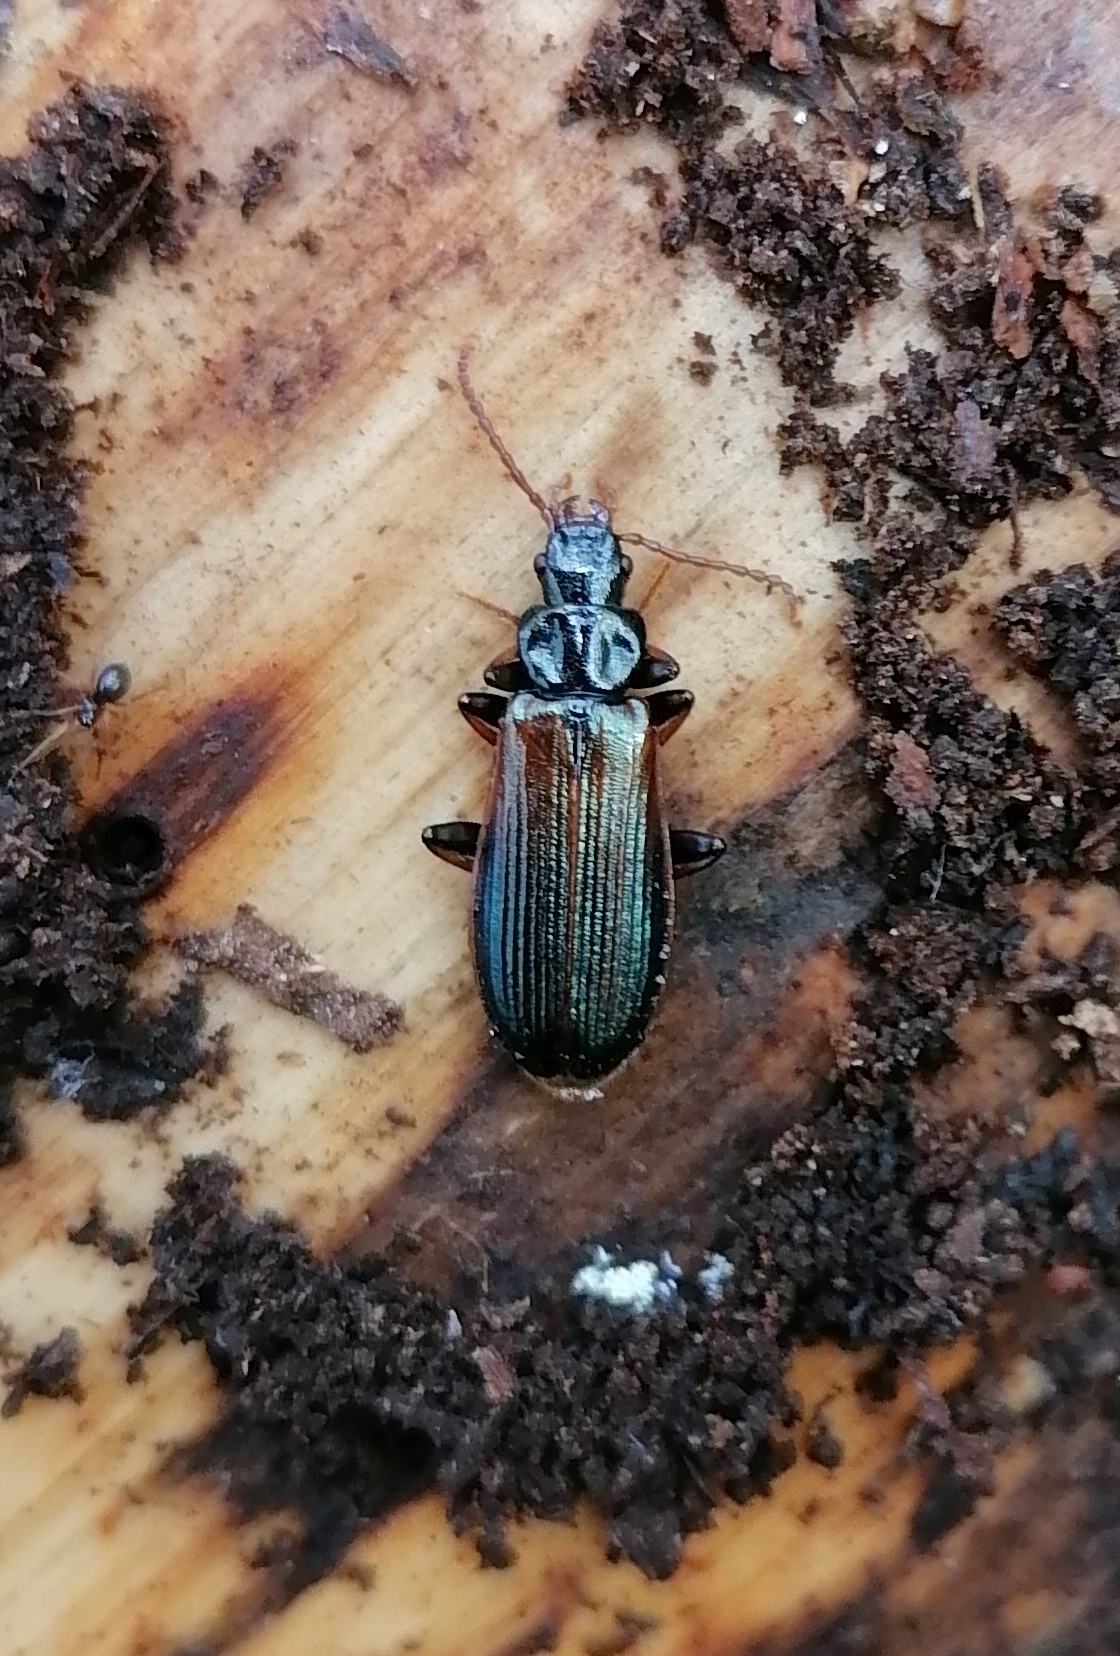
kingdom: Animalia
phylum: Arthropoda
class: Insecta
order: Coleoptera
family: Pythidae
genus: Pytho
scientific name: Pytho depressus
